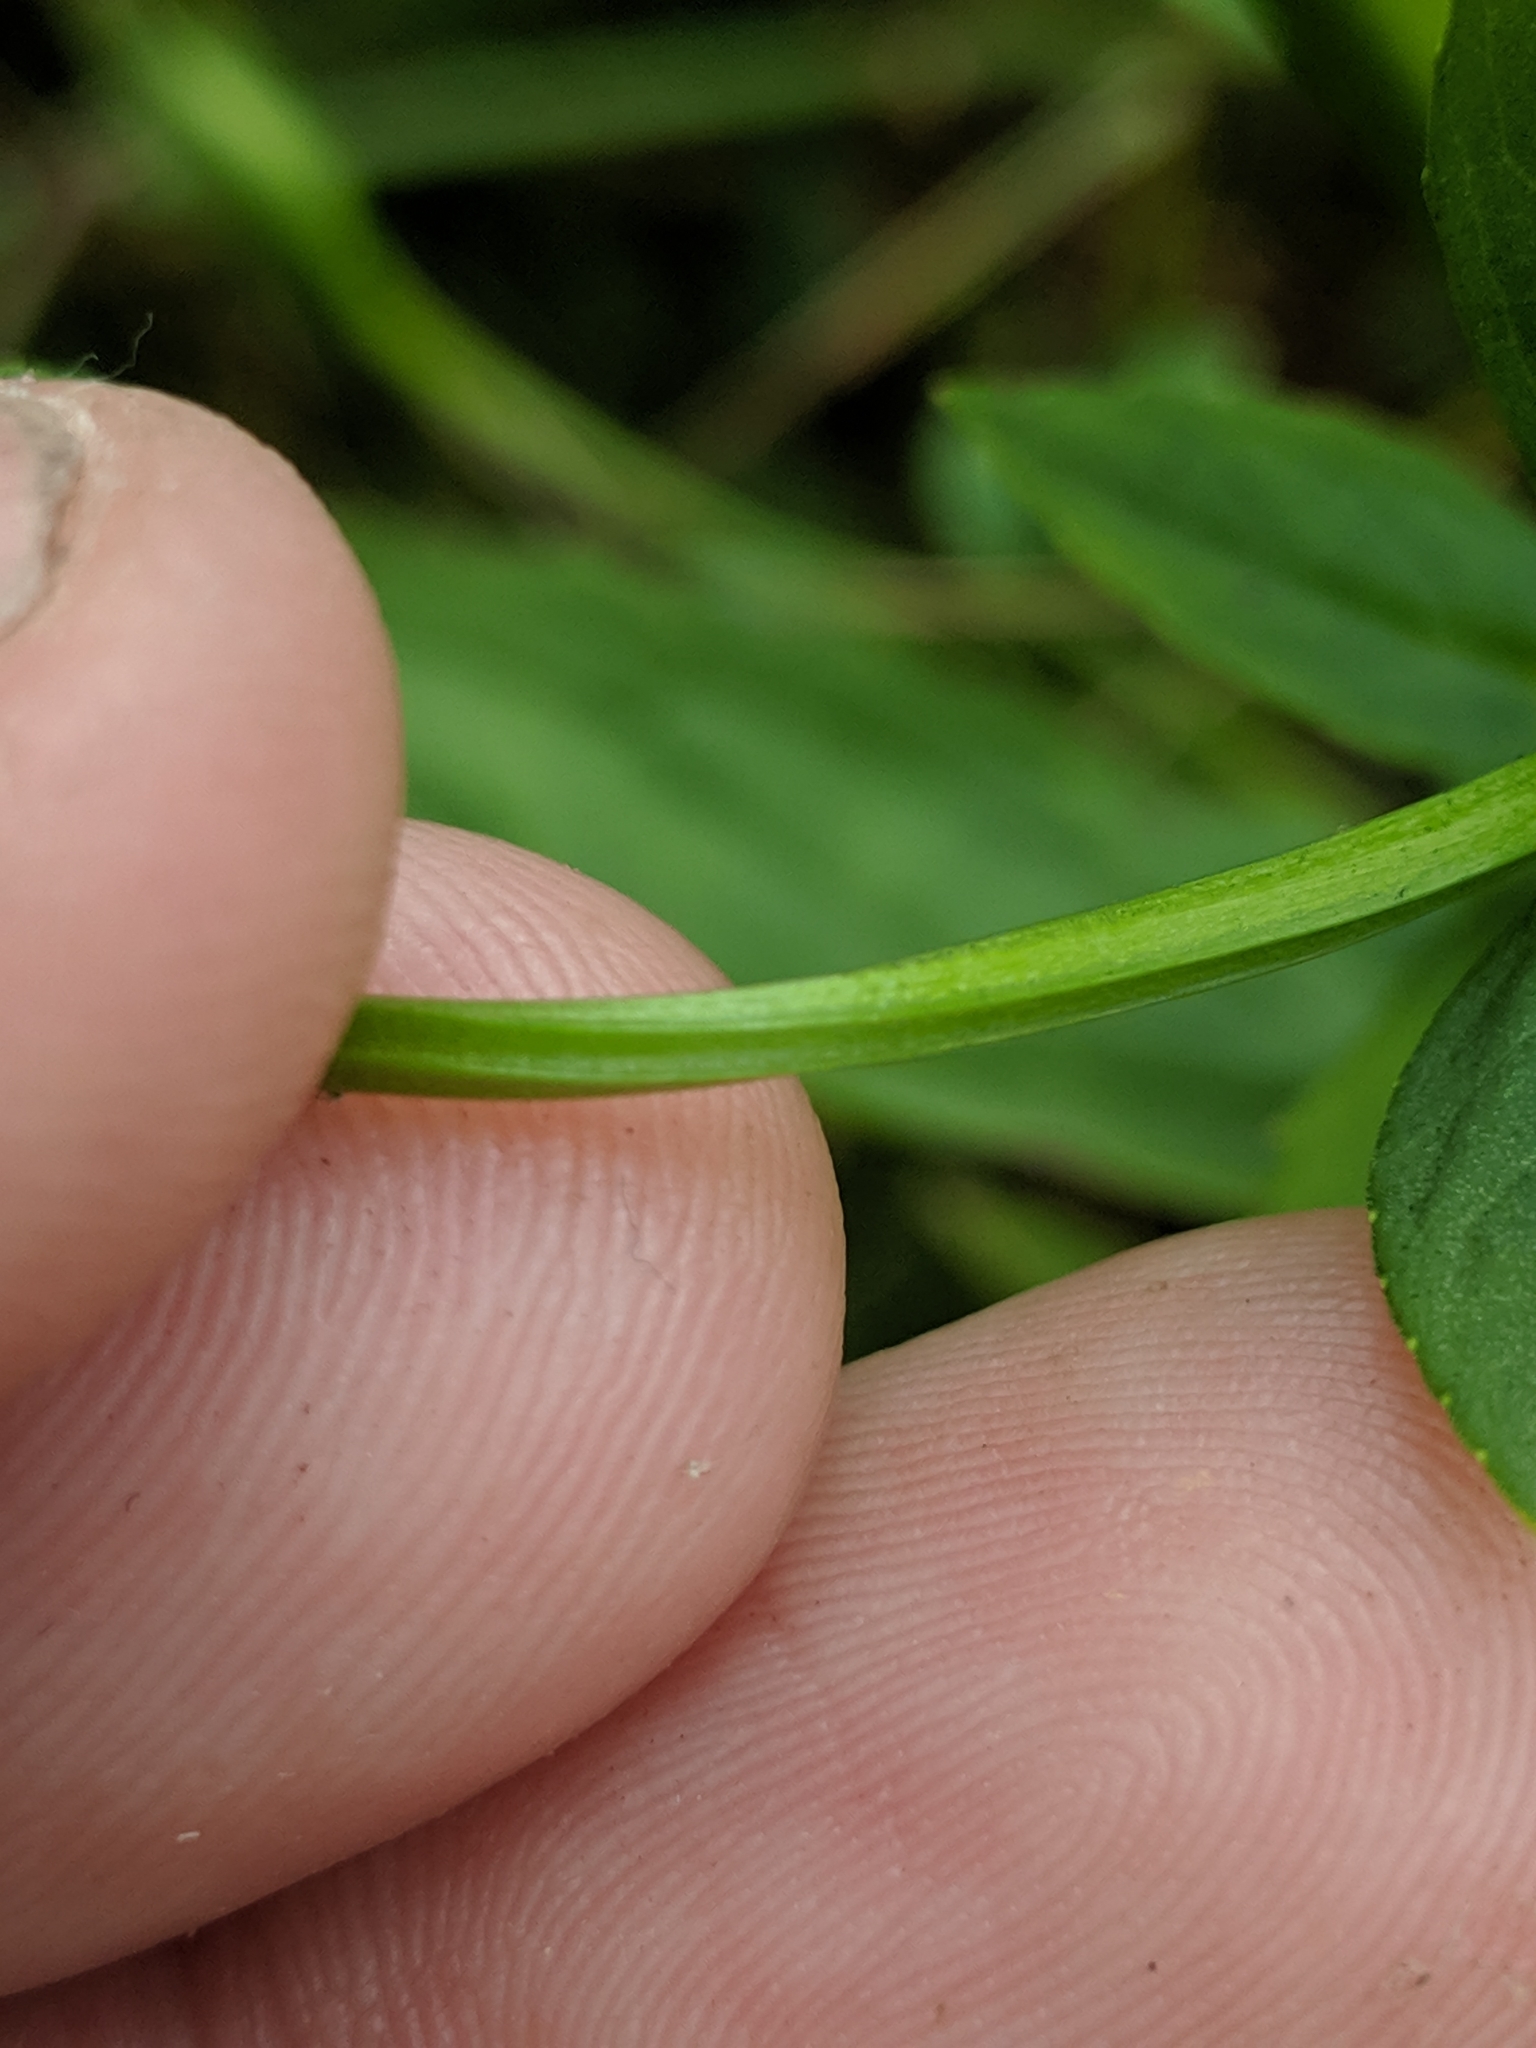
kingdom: Plantae
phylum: Tracheophyta
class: Magnoliopsida
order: Lamiales
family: Phrymaceae
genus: Mimulus
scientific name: Mimulus ringens
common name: Allegheny monkeyflower
